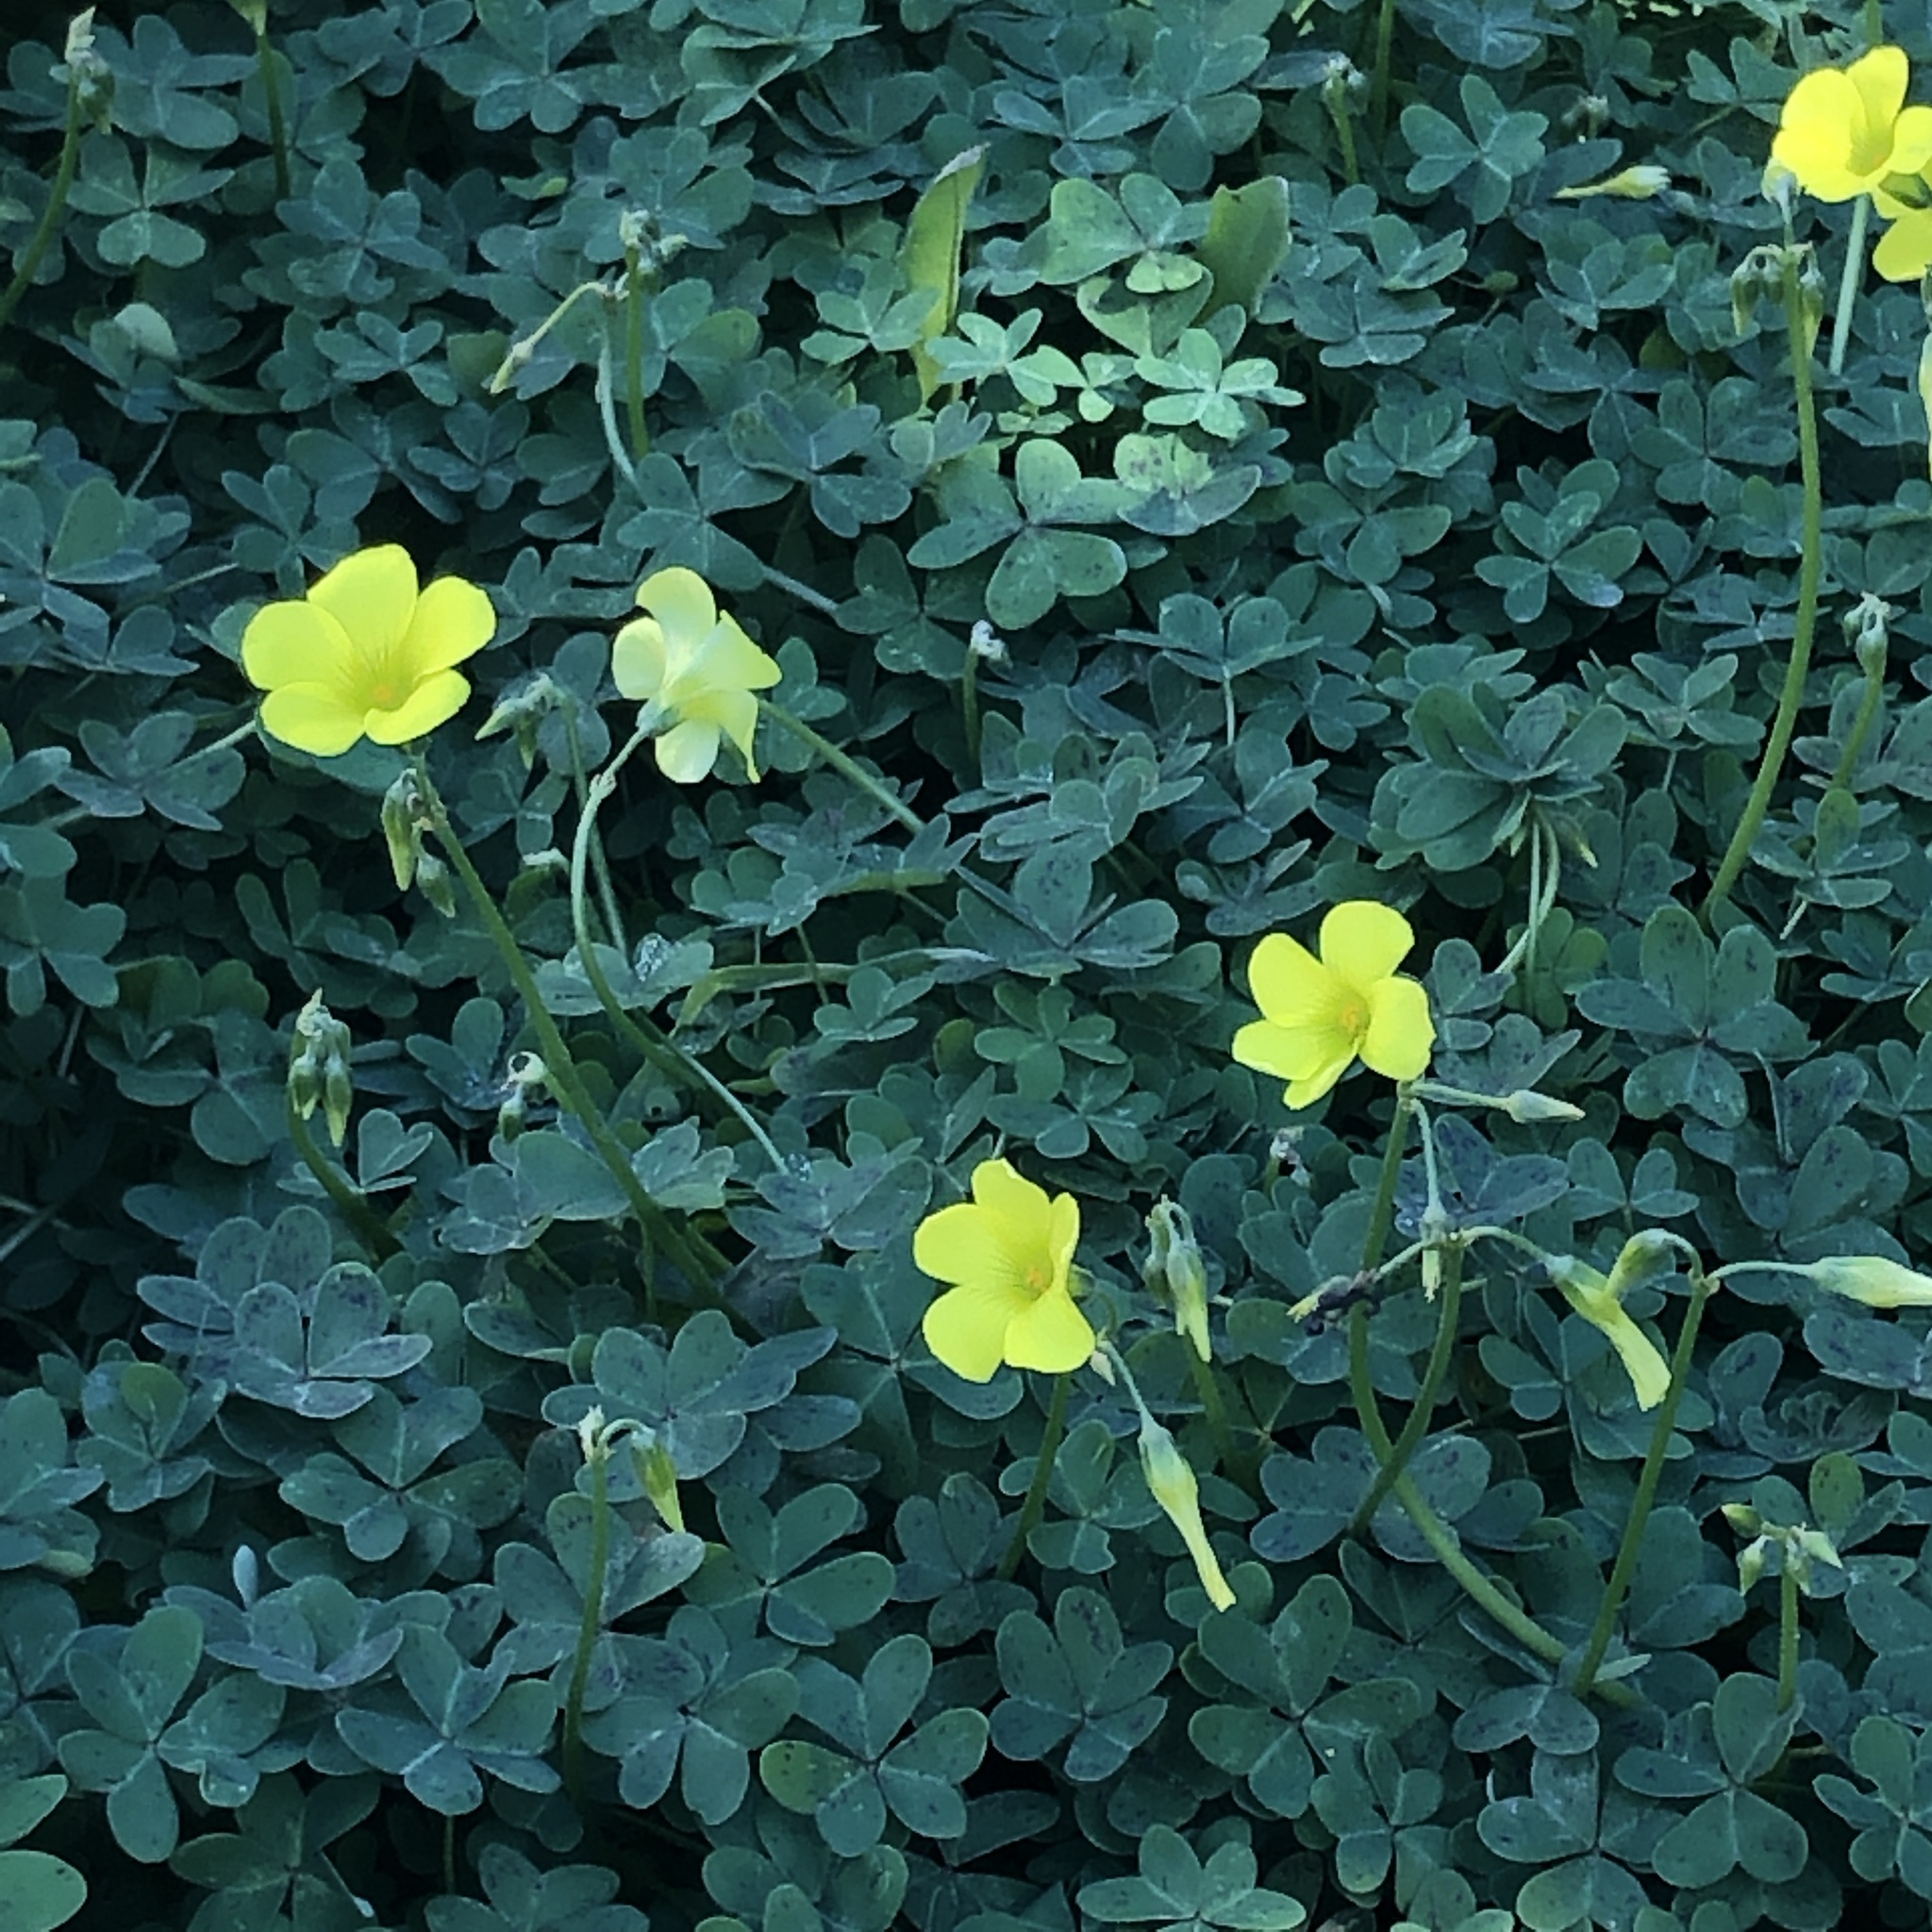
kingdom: Plantae
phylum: Tracheophyta
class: Magnoliopsida
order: Oxalidales
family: Oxalidaceae
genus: Oxalis
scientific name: Oxalis pes-caprae
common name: Bermuda-buttercup
